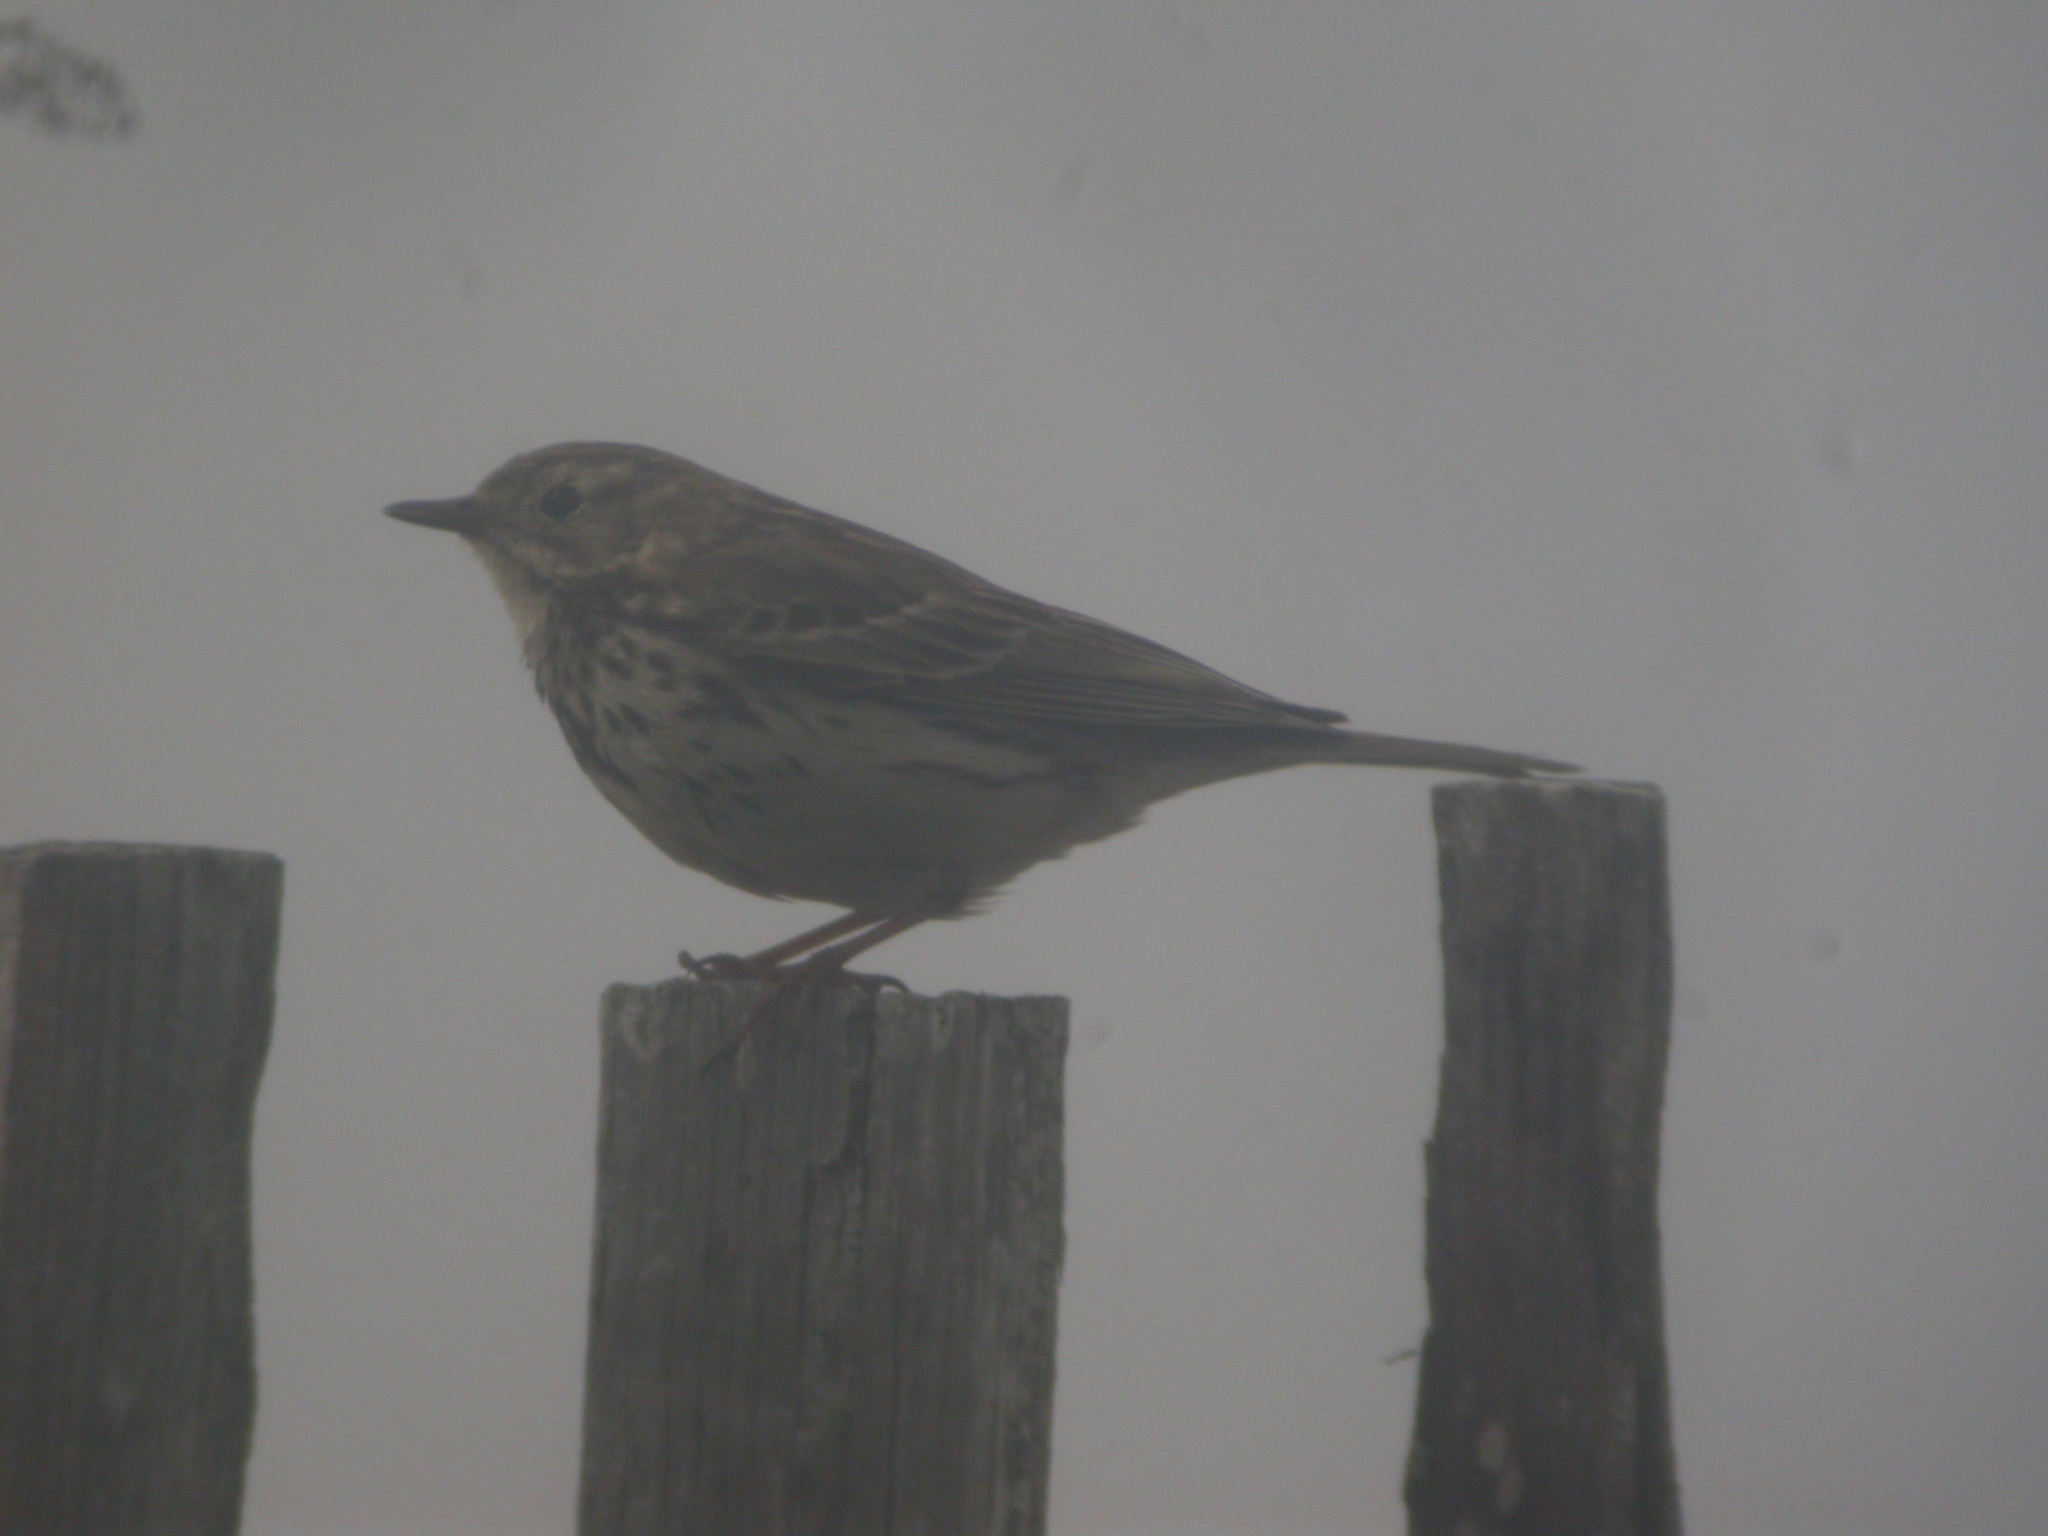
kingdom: Animalia
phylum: Chordata
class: Aves
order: Passeriformes
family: Motacillidae
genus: Anthus
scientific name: Anthus pratensis
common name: Meadow pipit
